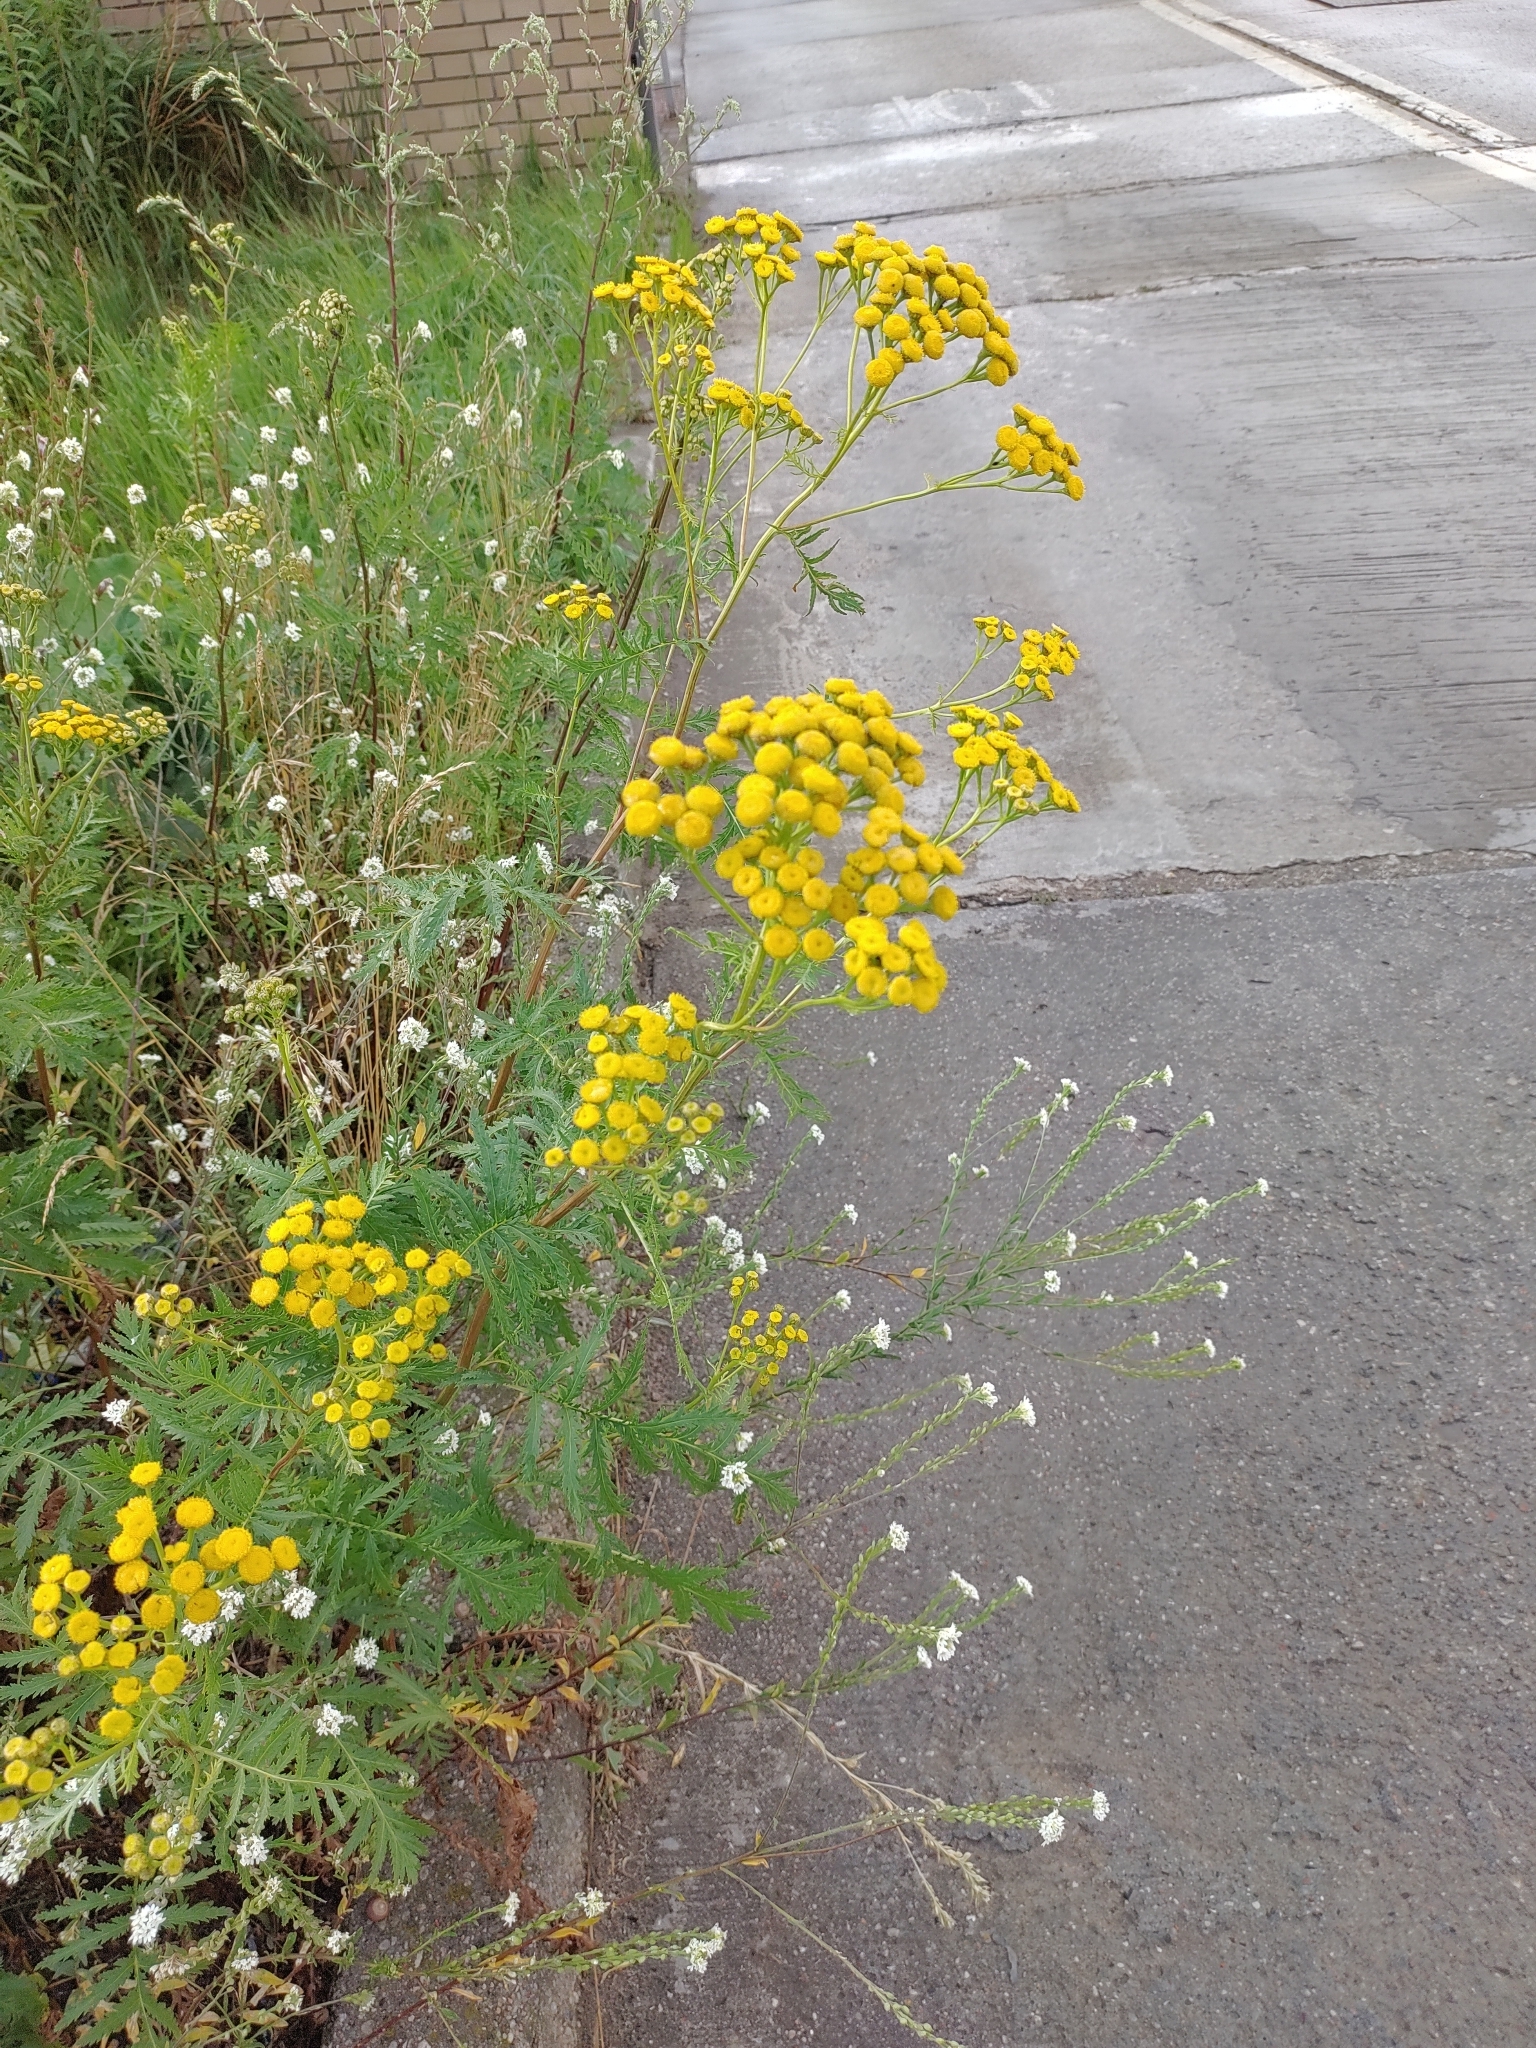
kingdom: Plantae
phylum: Tracheophyta
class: Magnoliopsida
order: Asterales
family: Asteraceae
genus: Tanacetum
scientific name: Tanacetum vulgare
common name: Common tansy
